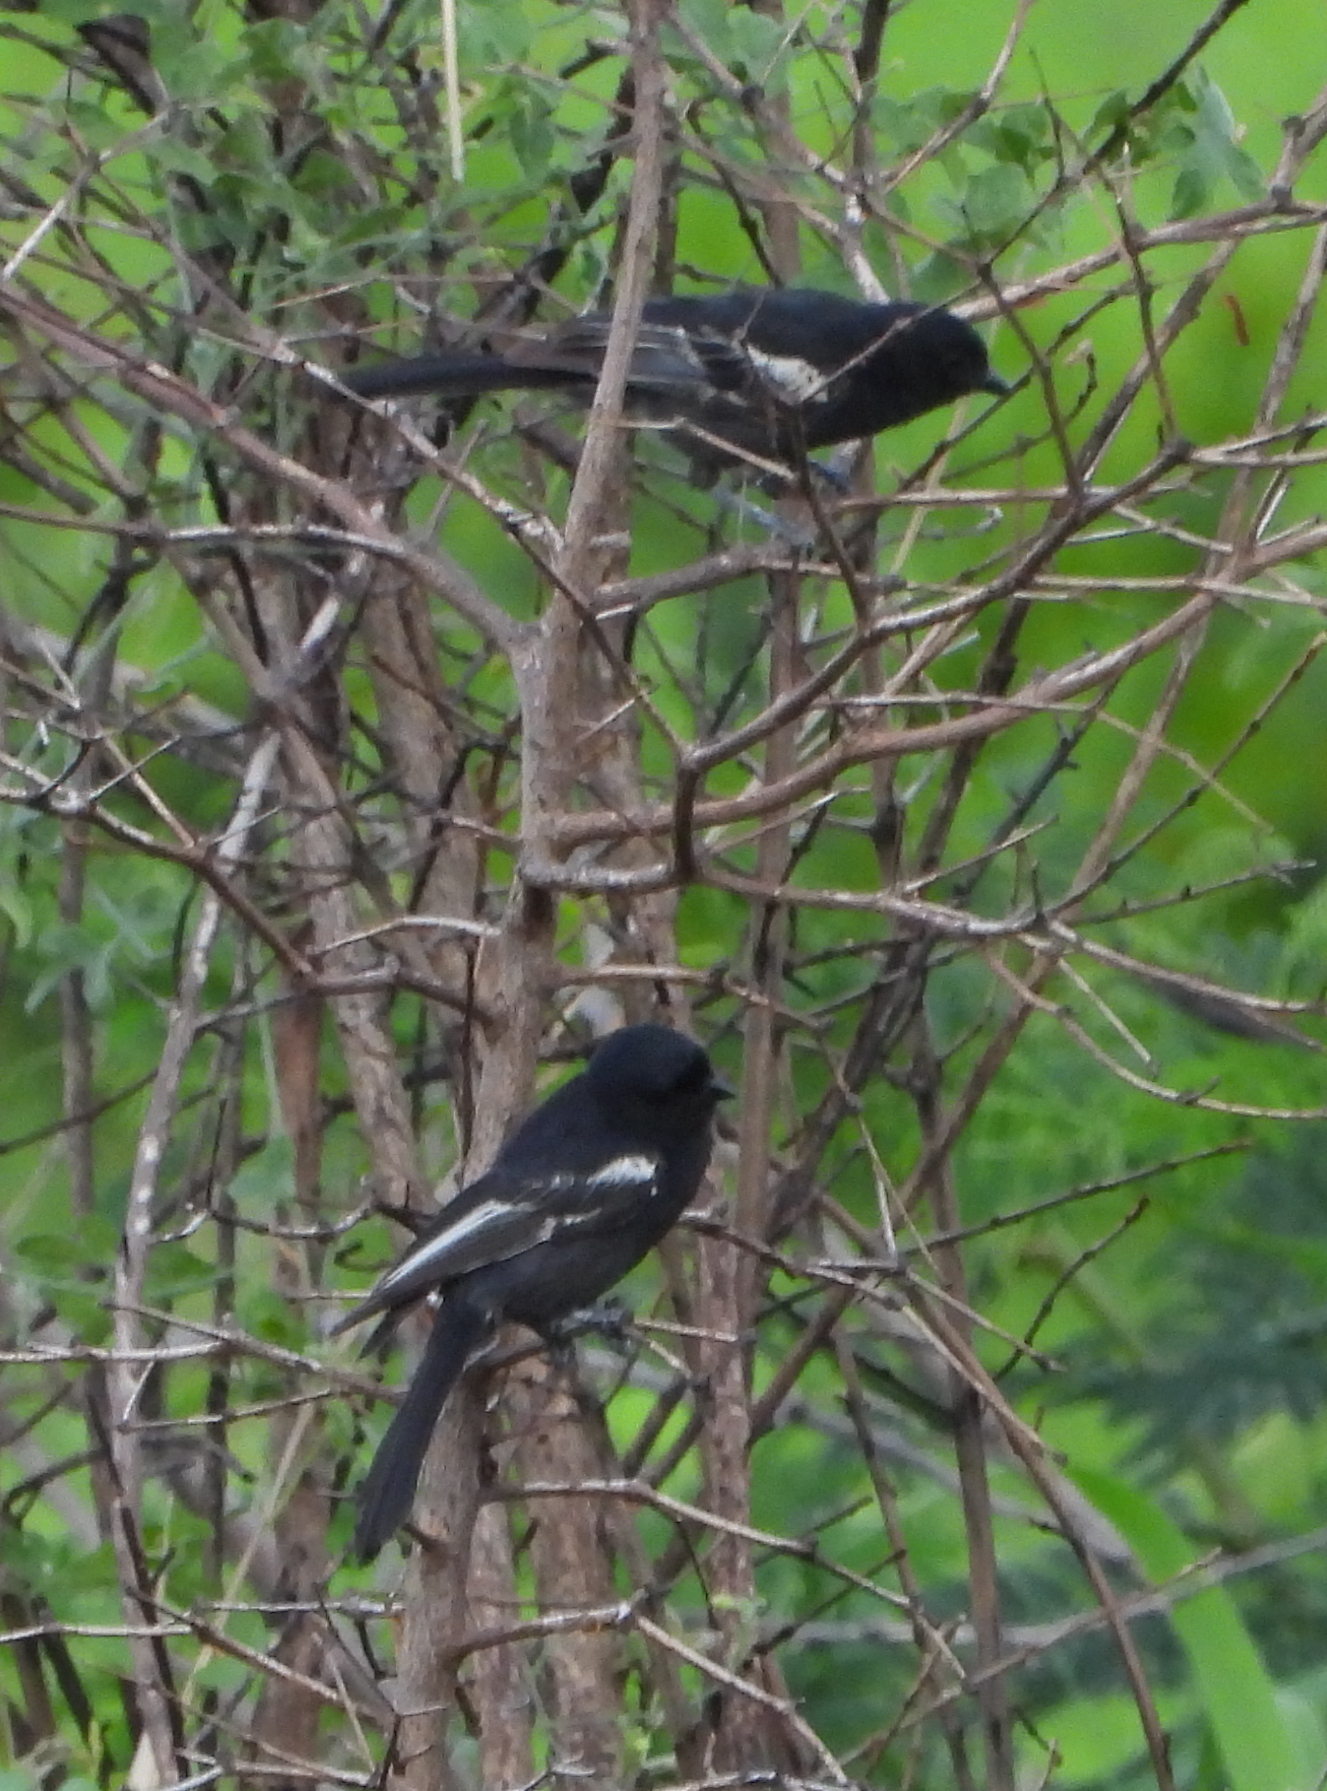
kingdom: Animalia
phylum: Chordata
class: Aves
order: Passeriformes
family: Paridae
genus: Parus
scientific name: Parus niger
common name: Southern black tit
